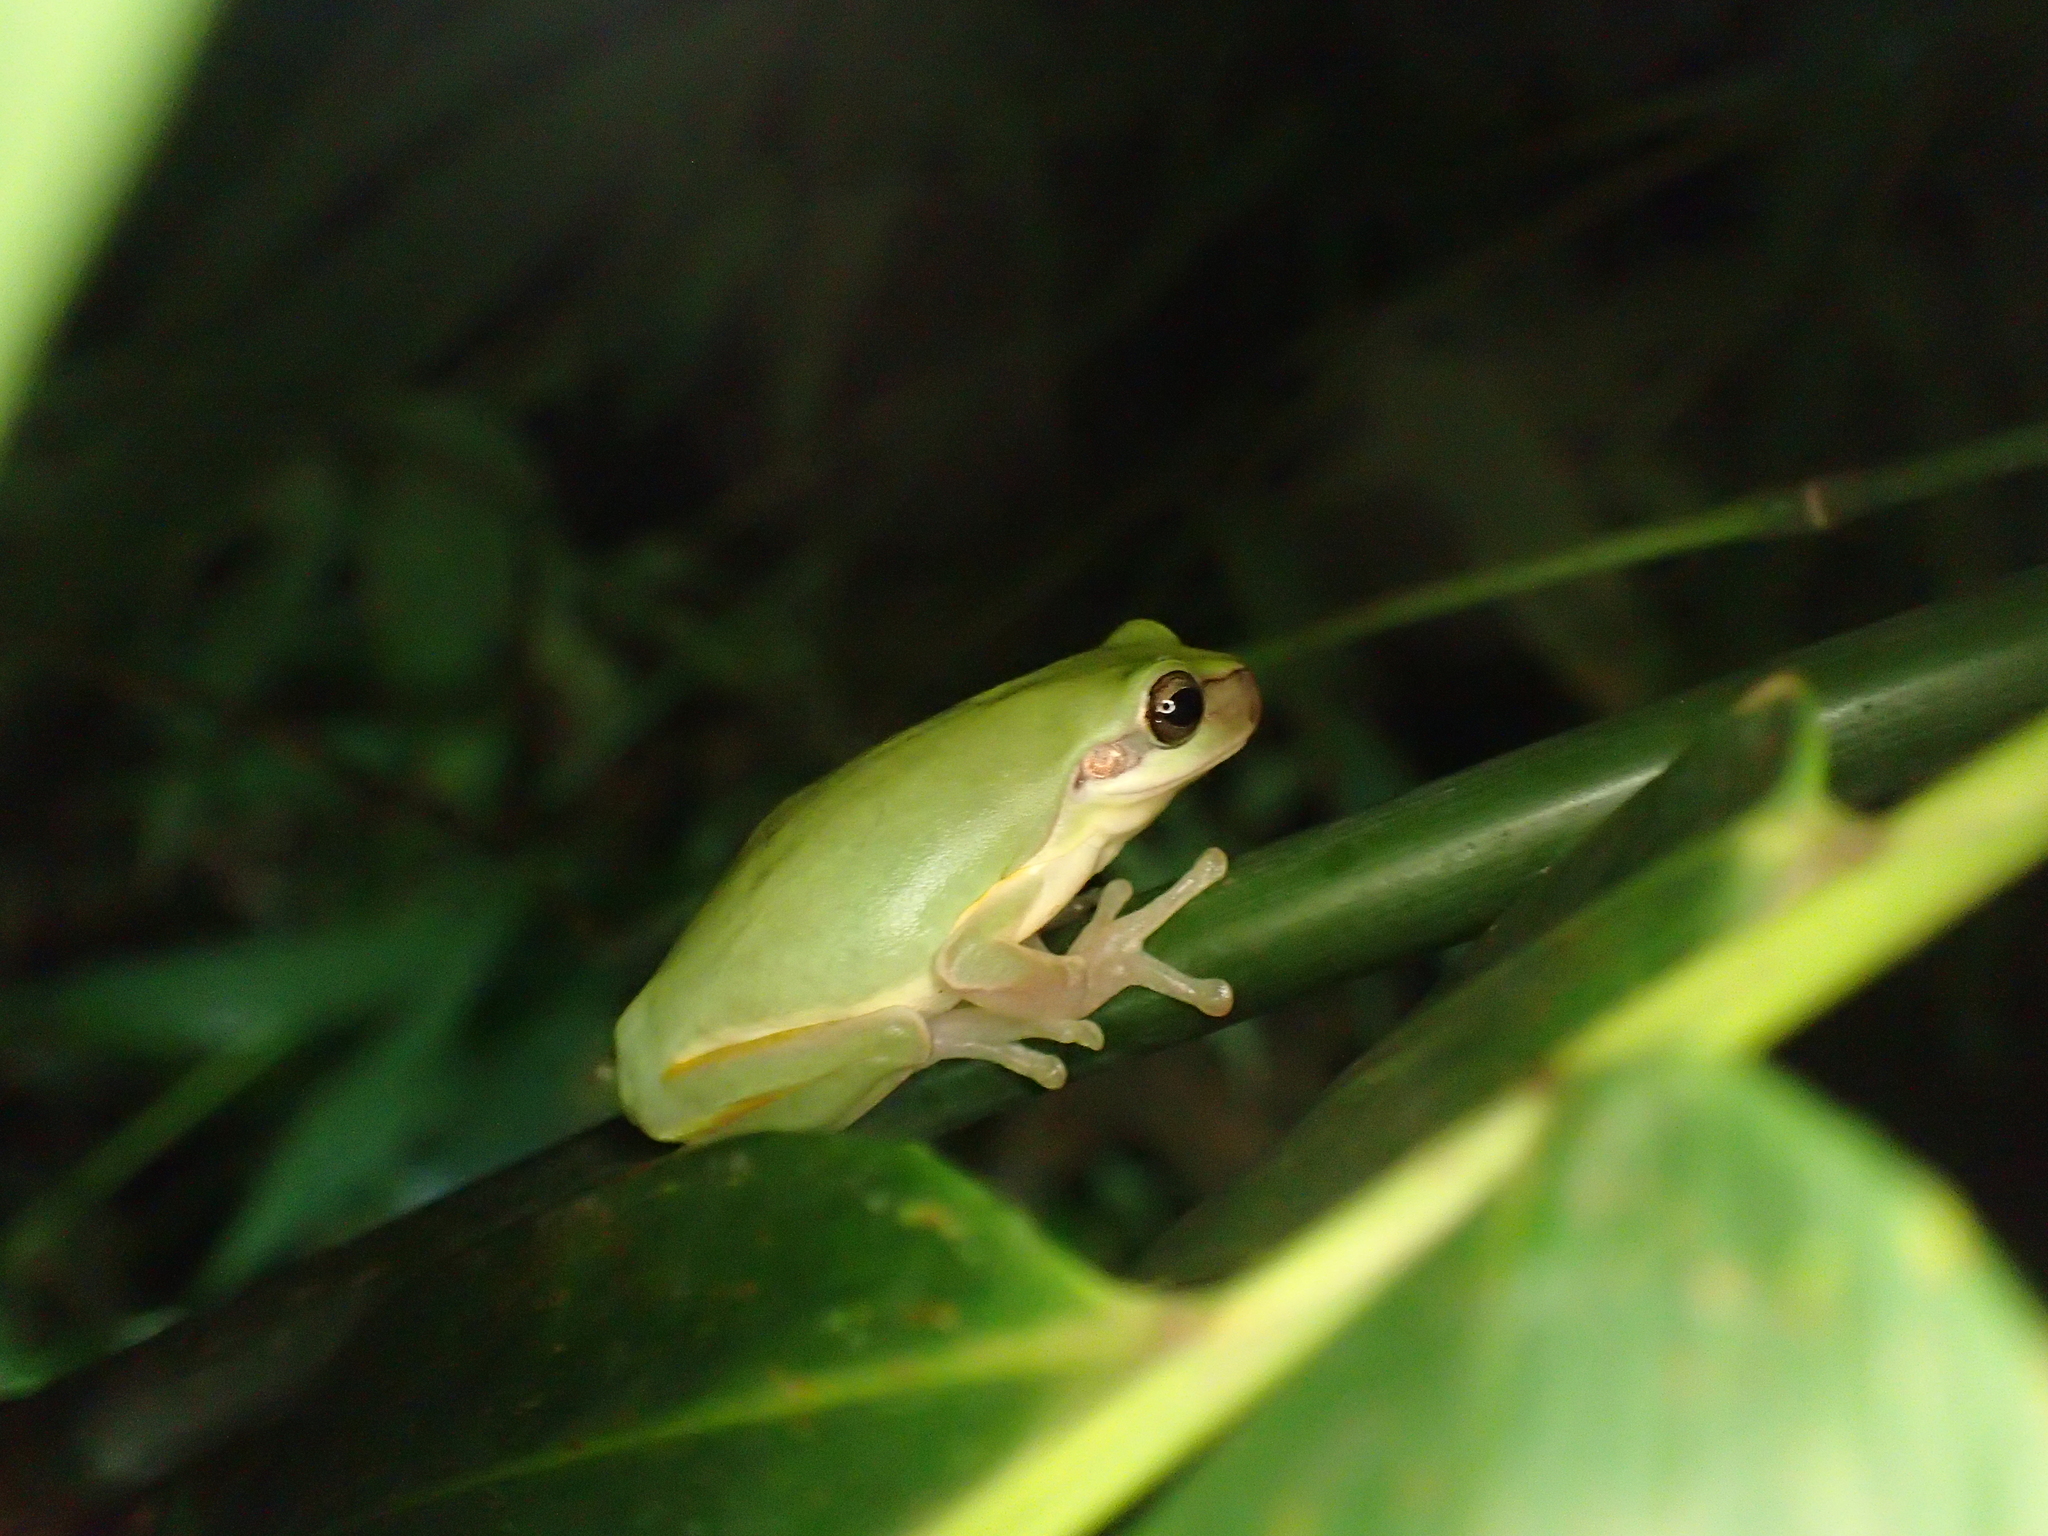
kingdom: Animalia
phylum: Chordata
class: Amphibia
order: Anura
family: Hylidae
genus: Hyla
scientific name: Hyla chinensis
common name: Common chinese treefrog
